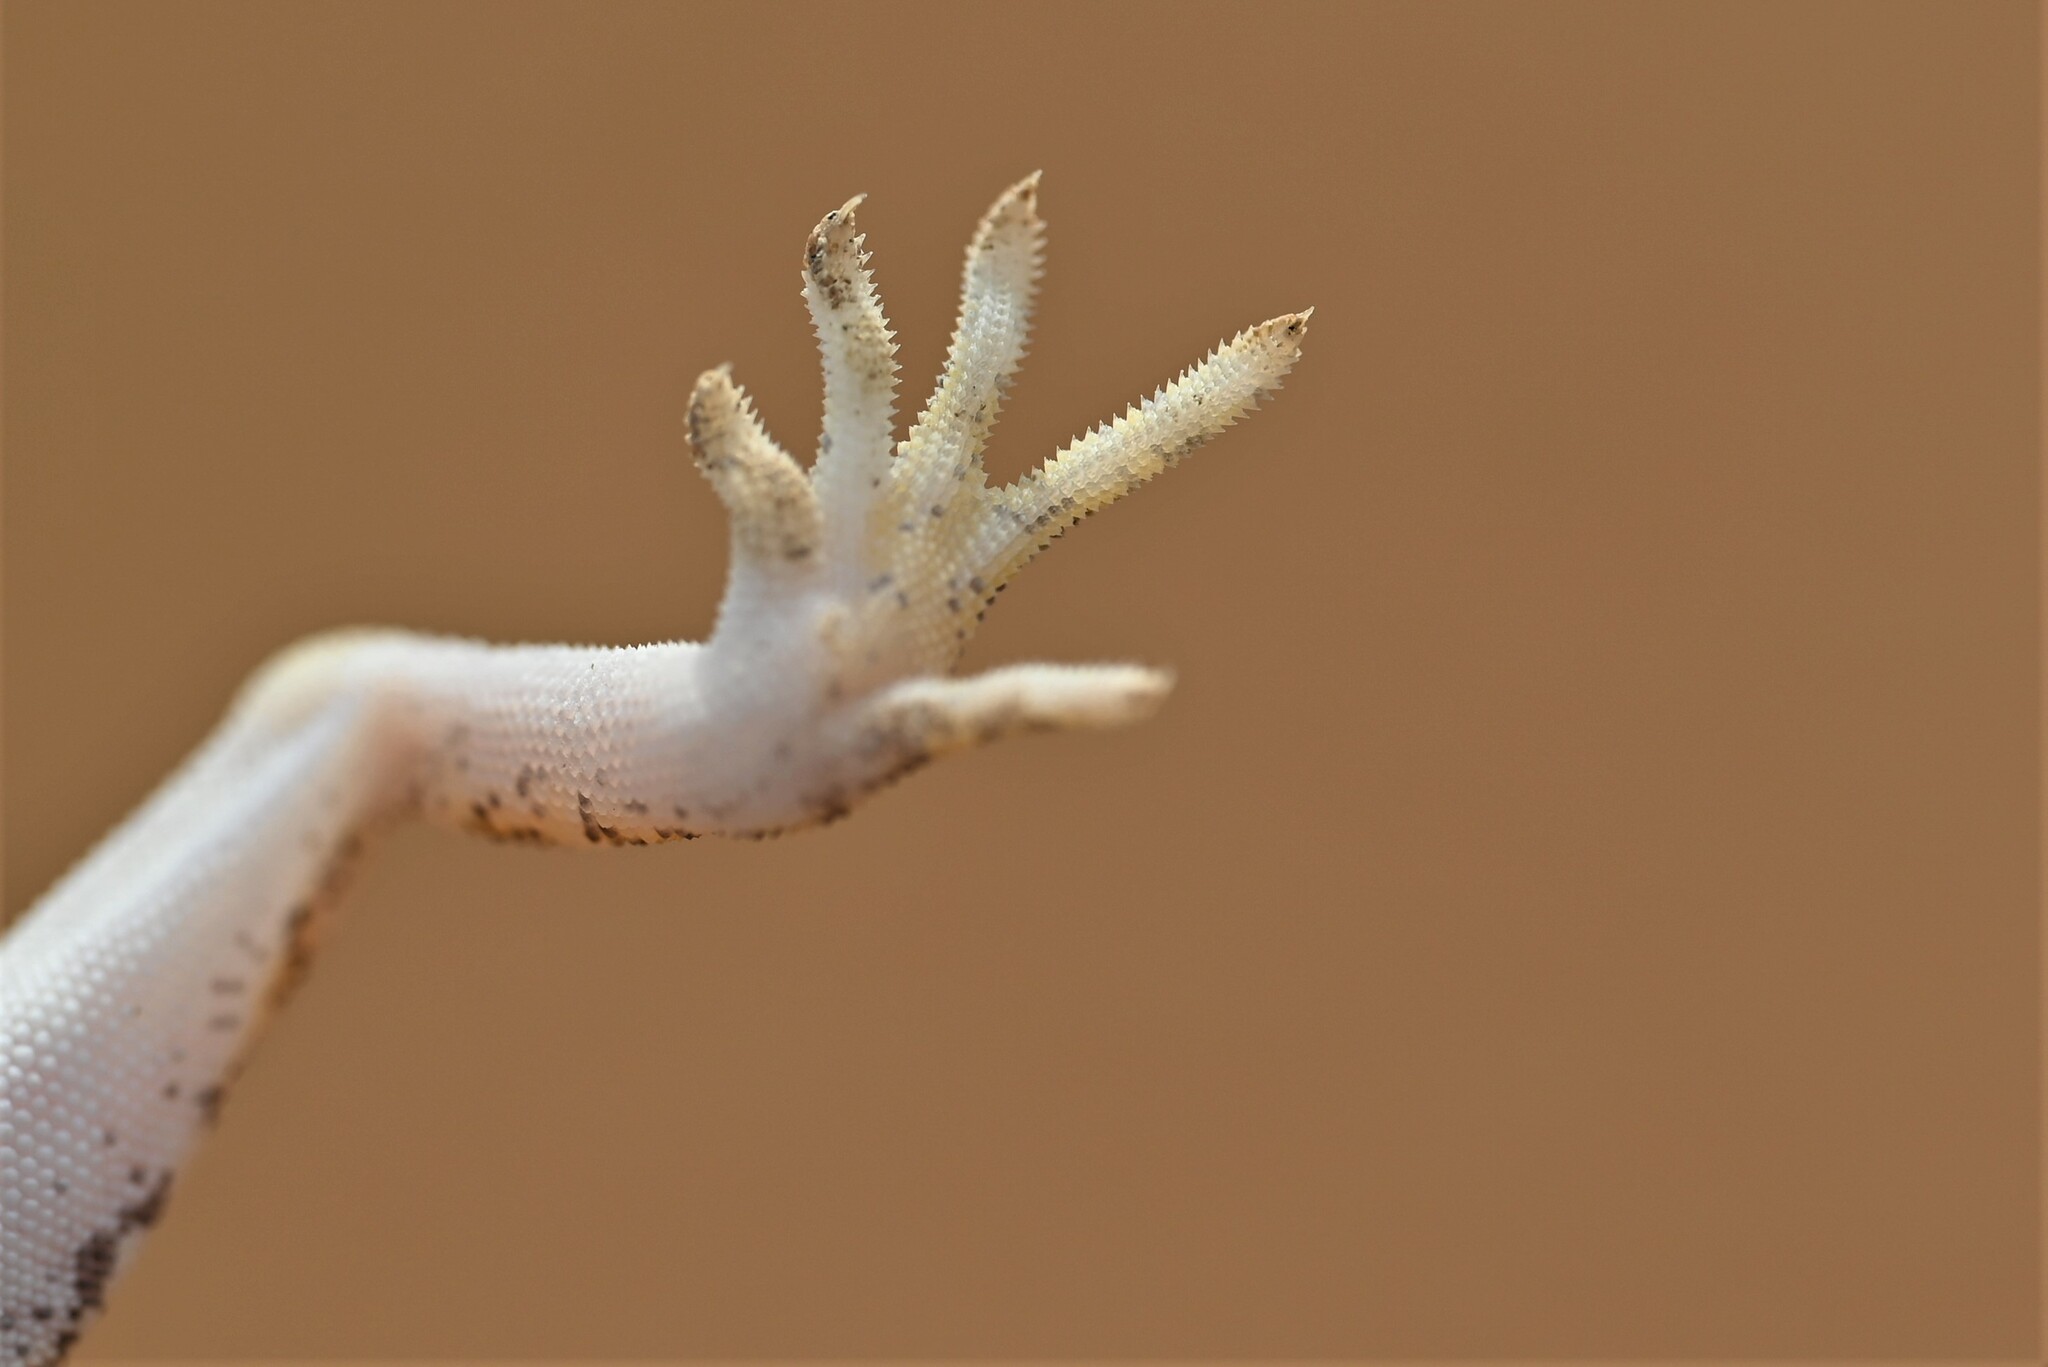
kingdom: Animalia
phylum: Chordata
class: Squamata
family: Gekkonidae
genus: Stenodactylus
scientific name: Stenodactylus slevini
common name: Slevin's sand gecko
